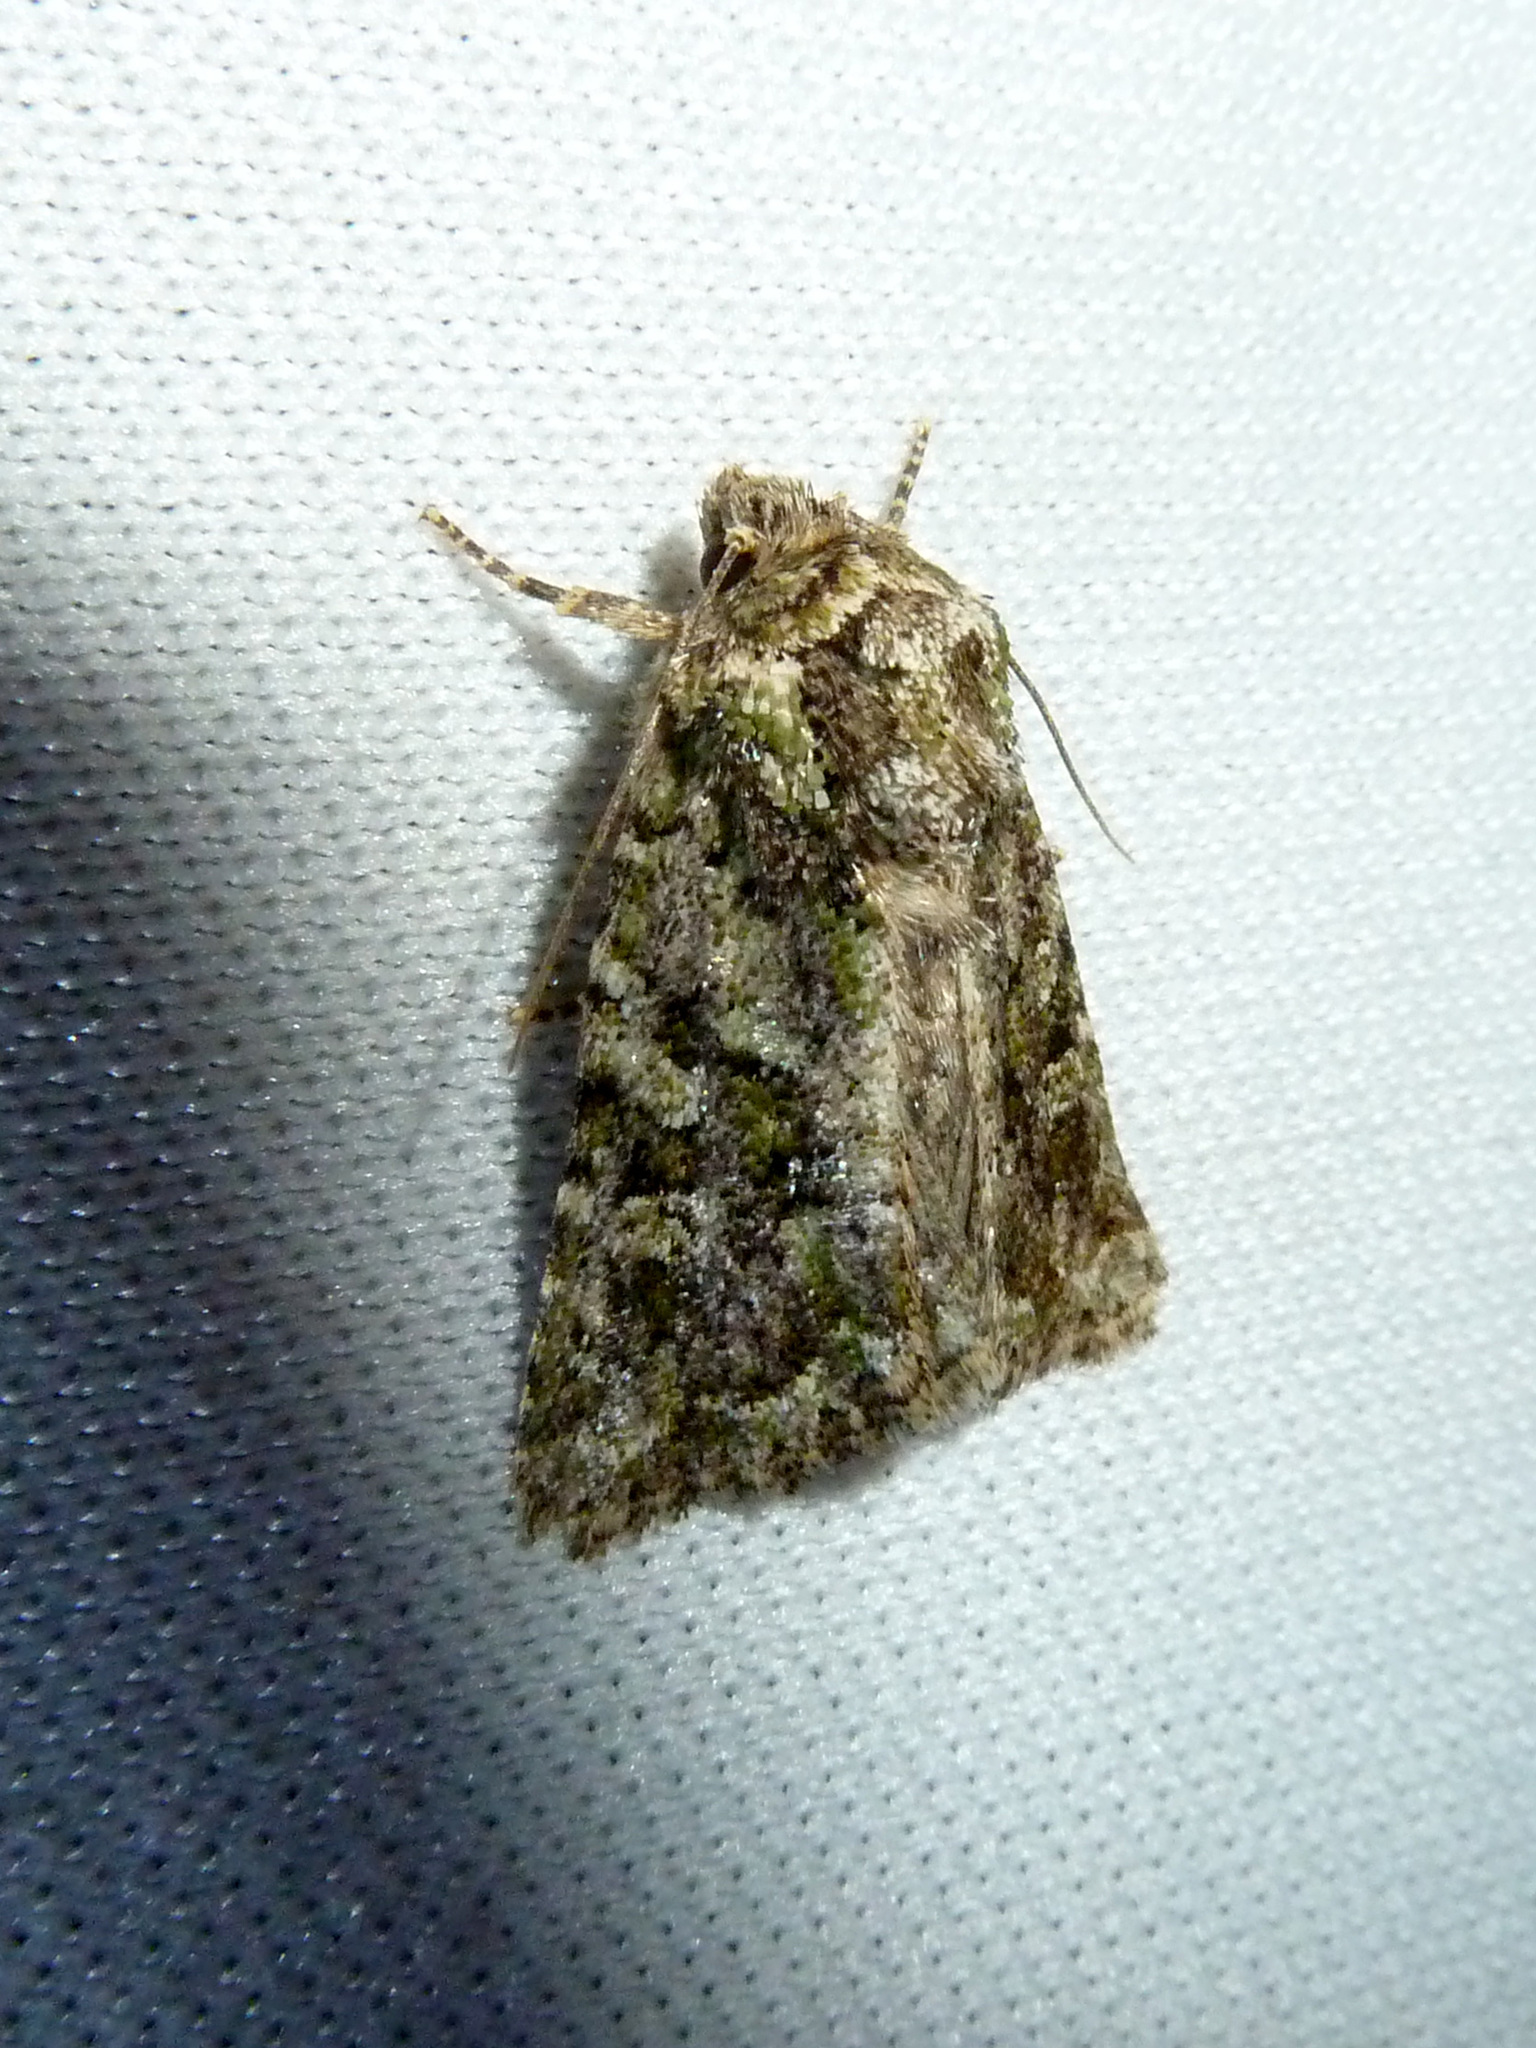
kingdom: Animalia
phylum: Arthropoda
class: Insecta
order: Lepidoptera
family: Noctuidae
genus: Aseptis
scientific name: Aseptis marina
